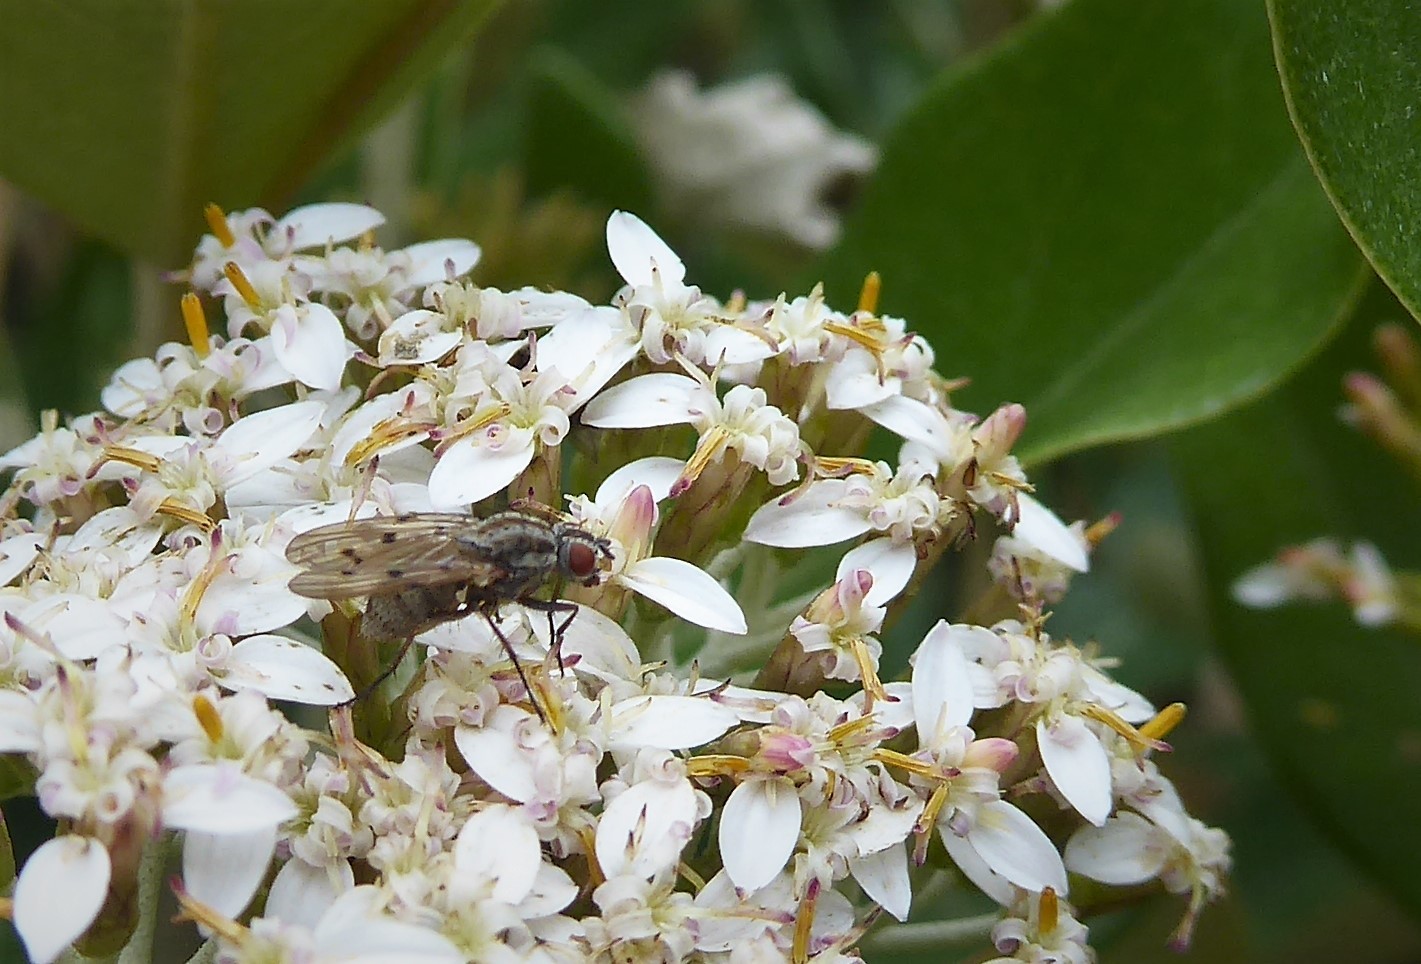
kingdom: Animalia
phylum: Arthropoda
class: Insecta
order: Diptera
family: Anthomyiidae
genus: Anthomyia
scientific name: Anthomyia punctipennis
